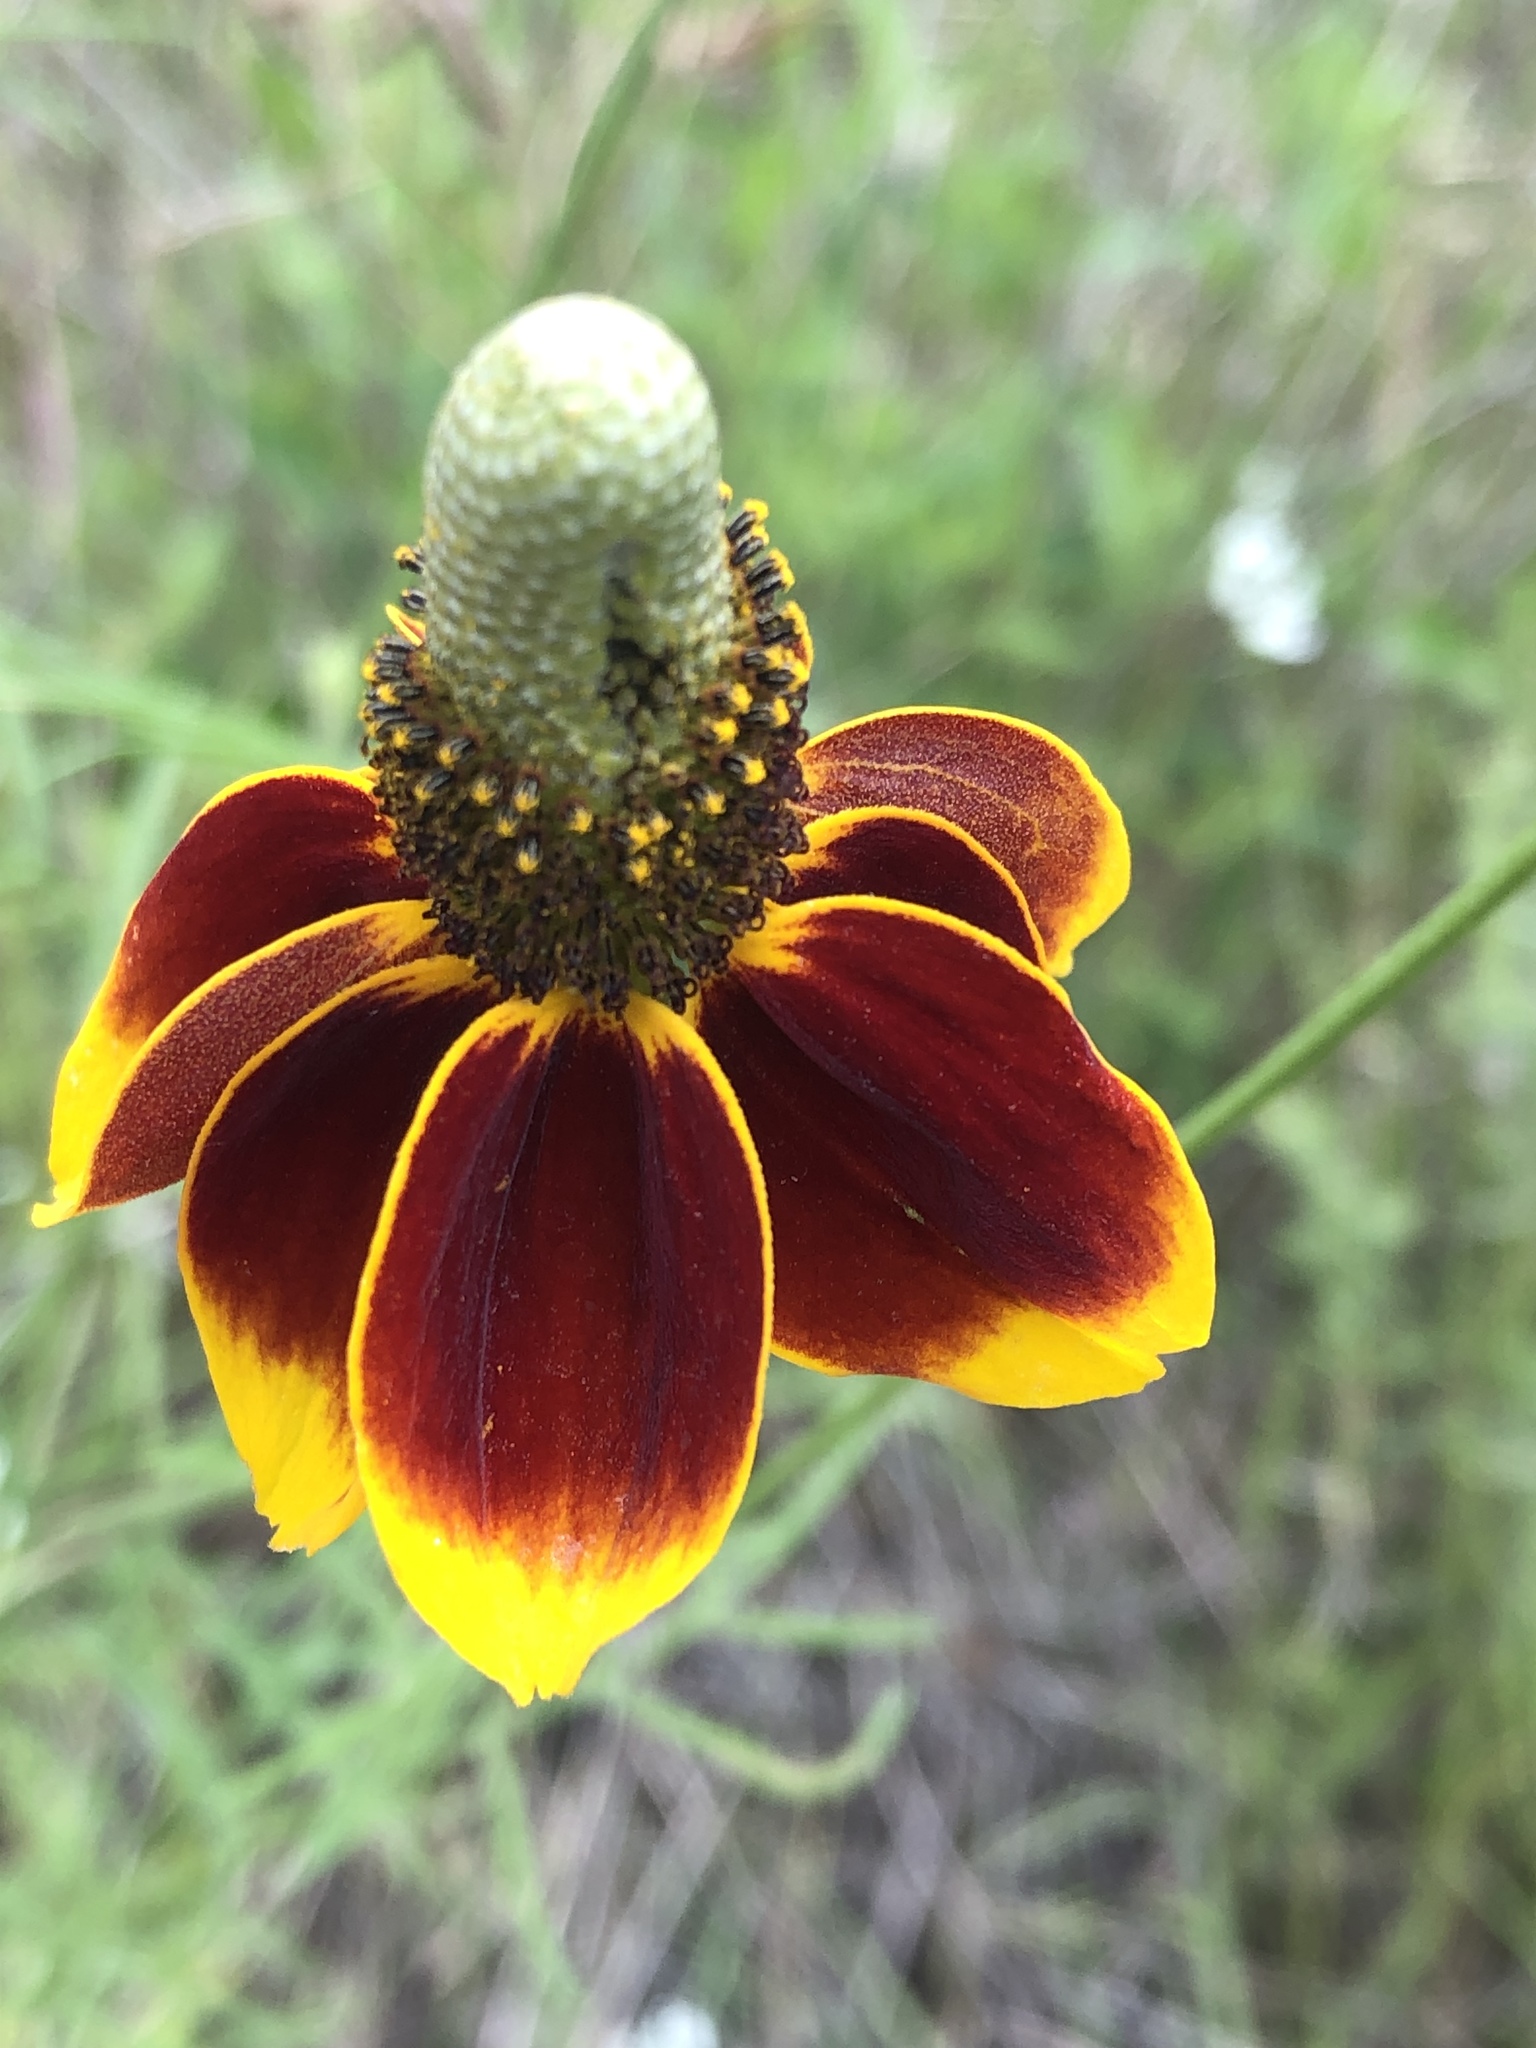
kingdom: Plantae
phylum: Tracheophyta
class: Magnoliopsida
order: Asterales
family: Asteraceae
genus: Ratibida
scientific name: Ratibida columnifera
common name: Prairie coneflower
